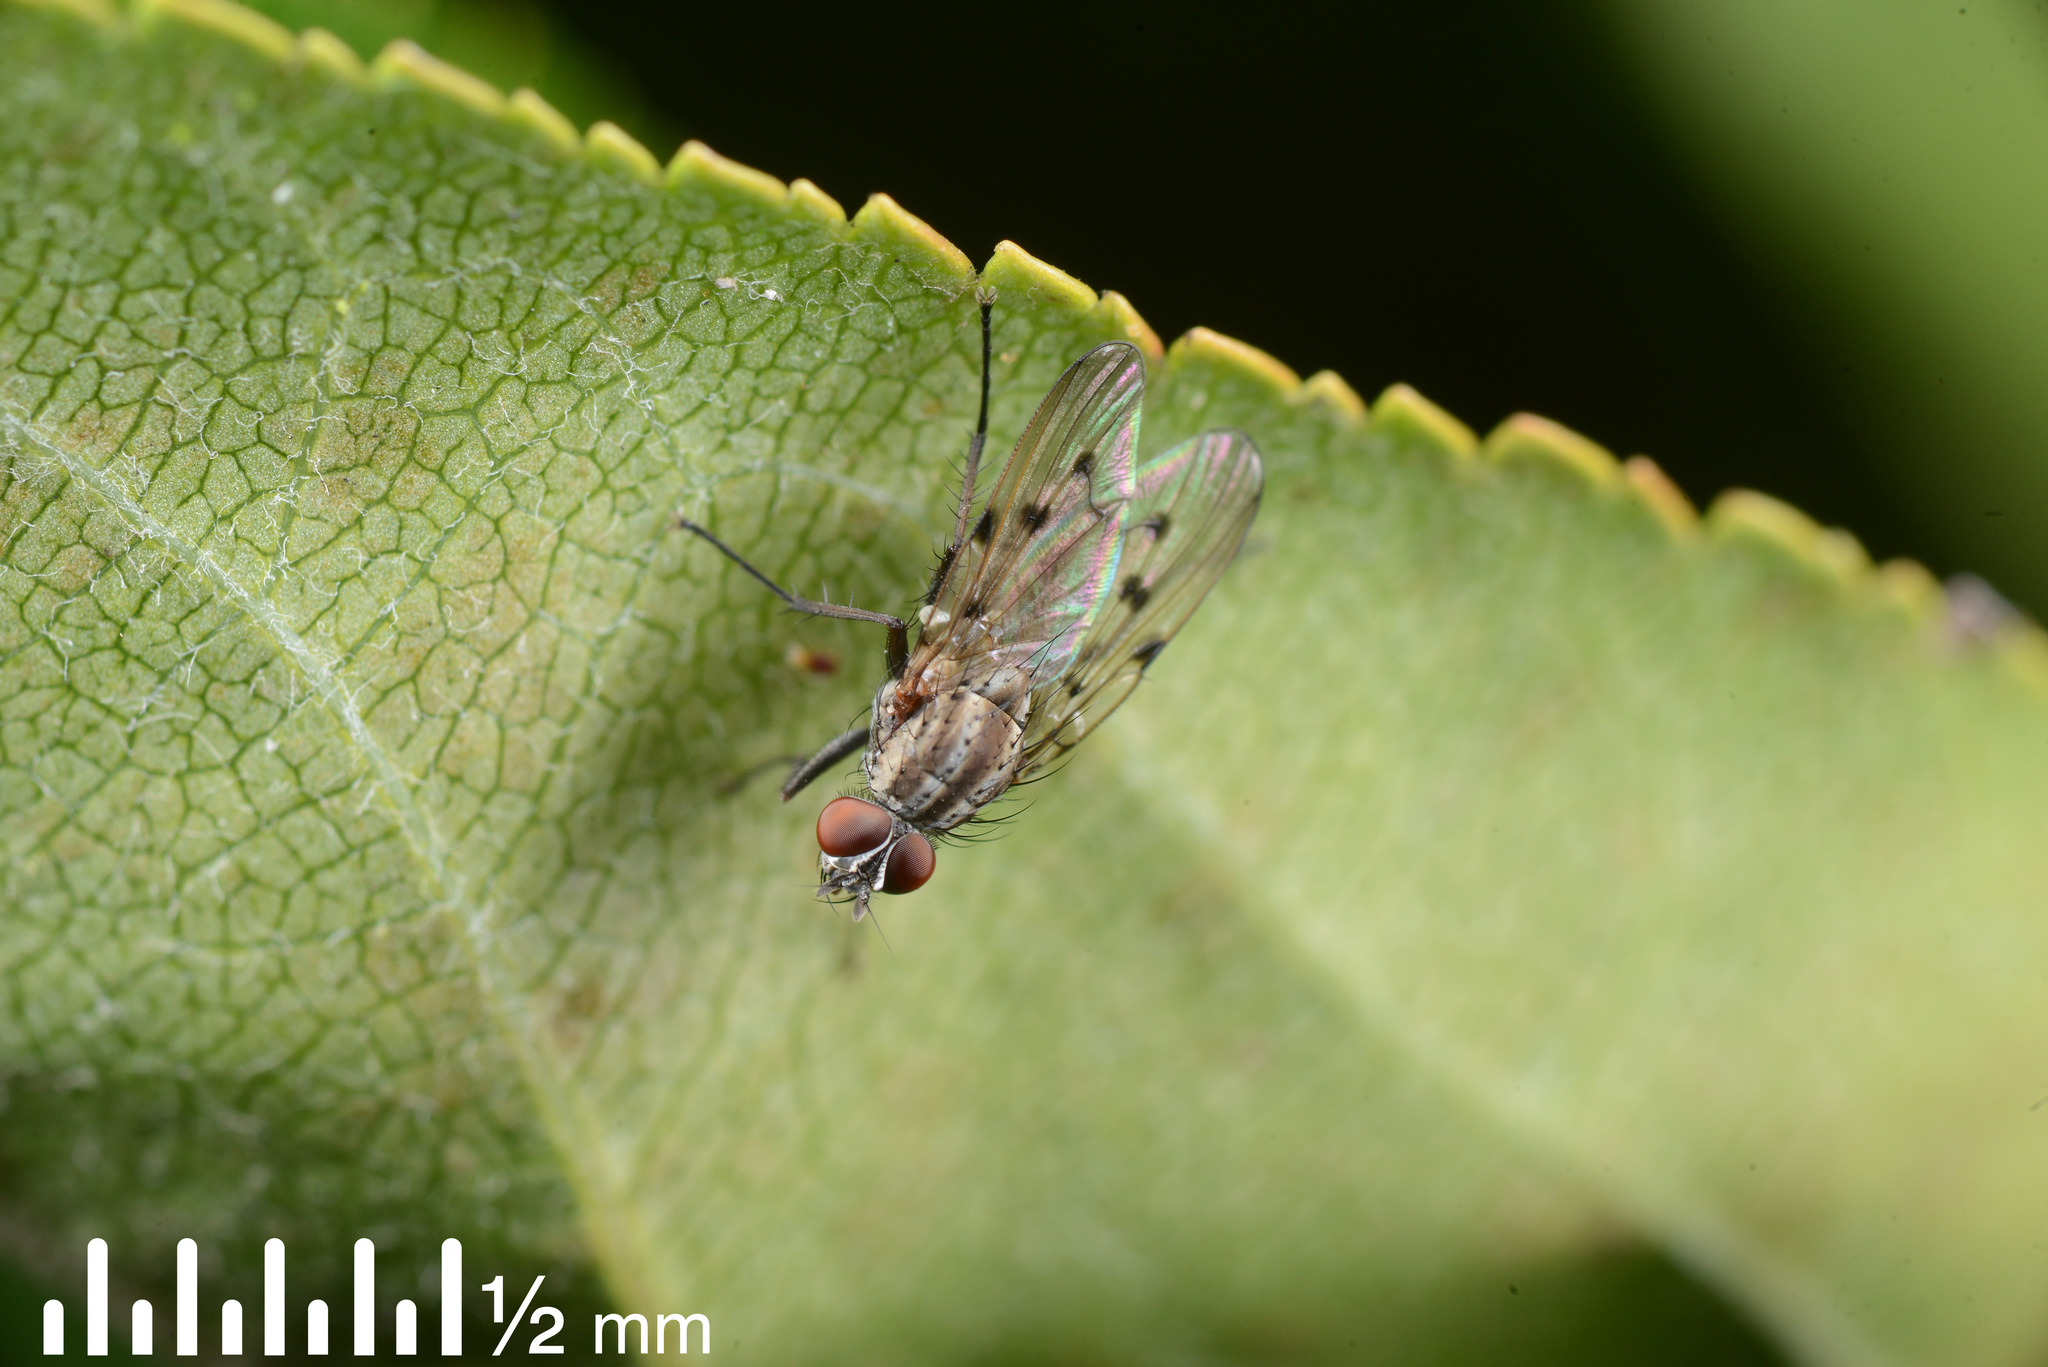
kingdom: Animalia
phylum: Arthropoda
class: Insecta
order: Diptera
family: Anthomyiidae
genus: Anthomyia
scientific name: Anthomyia punctipennis
